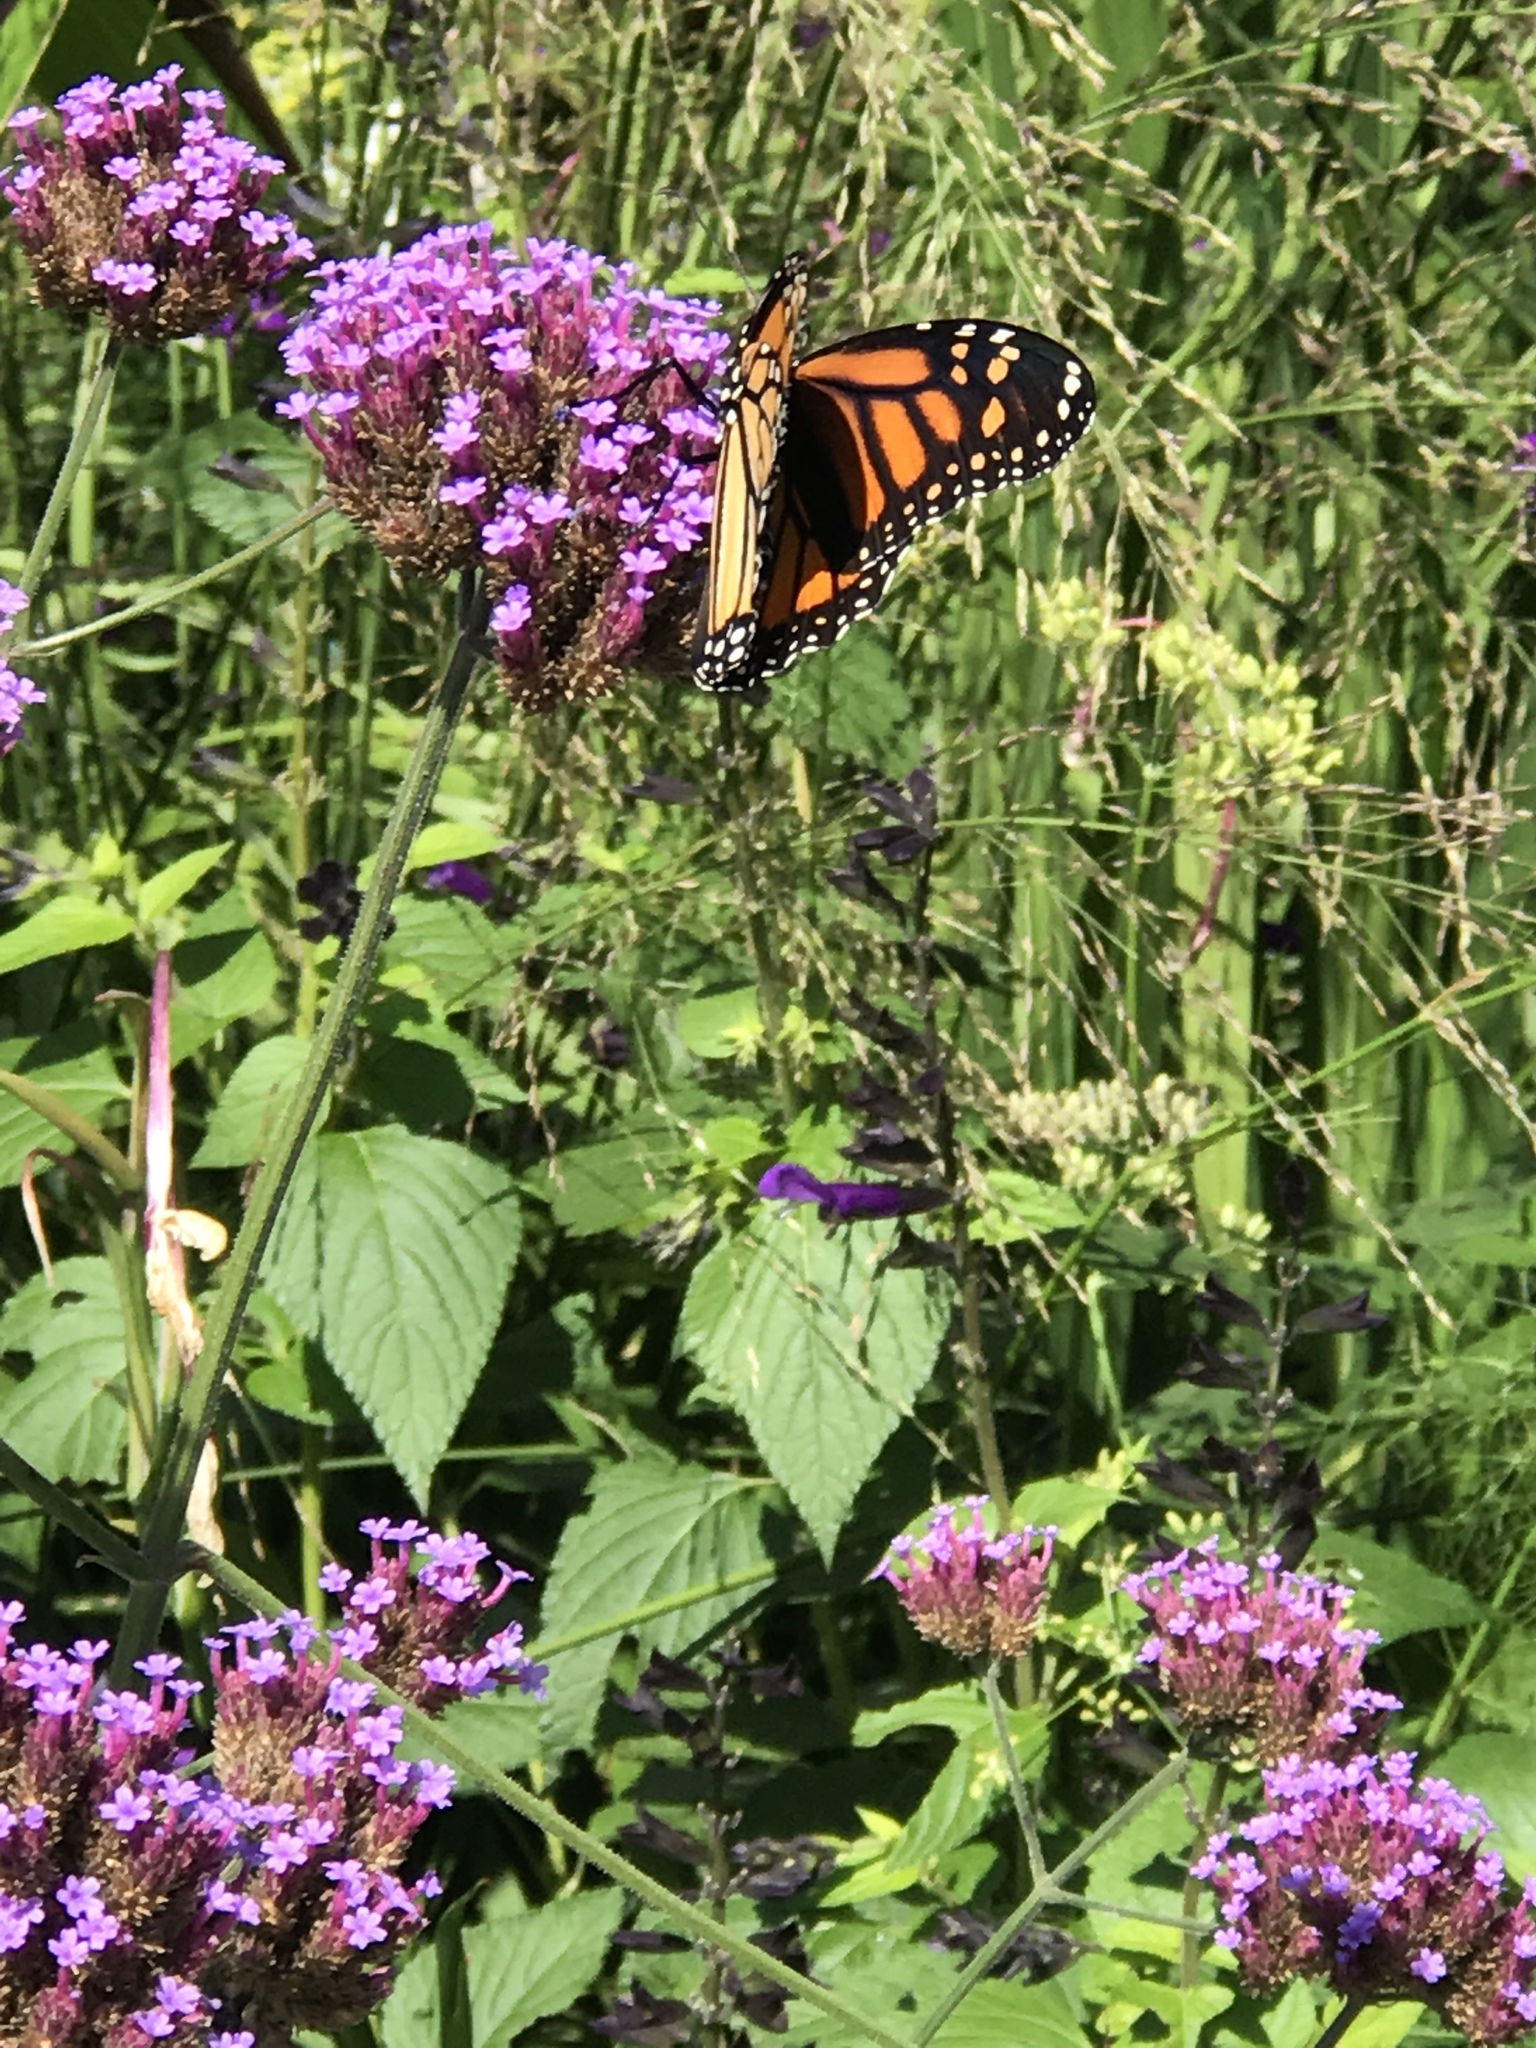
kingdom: Animalia
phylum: Arthropoda
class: Insecta
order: Lepidoptera
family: Nymphalidae
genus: Danaus
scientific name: Danaus plexippus
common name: Monarch
